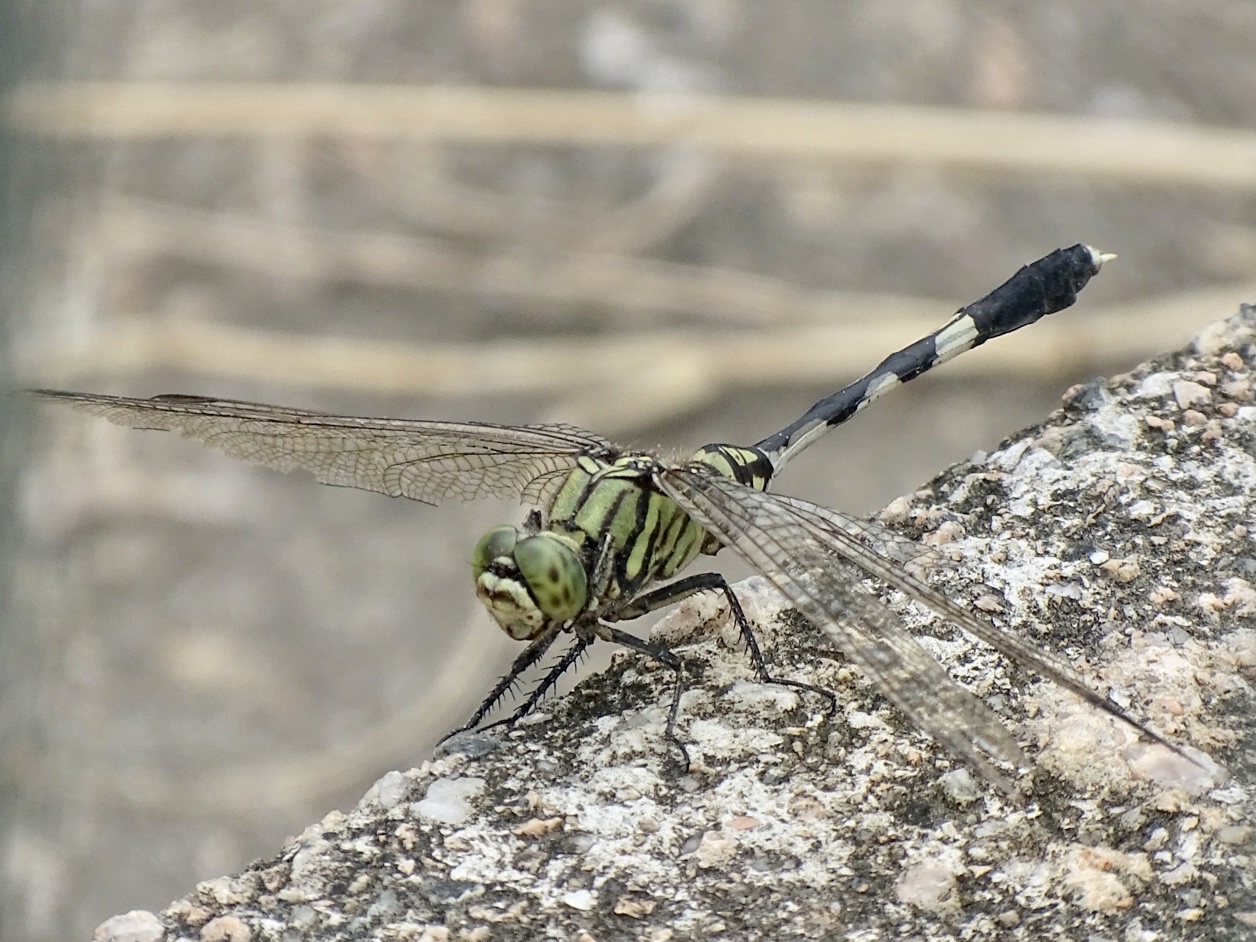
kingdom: Animalia
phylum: Arthropoda
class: Insecta
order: Odonata
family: Libellulidae
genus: Orthetrum
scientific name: Orthetrum sabina
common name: Slender skimmer
